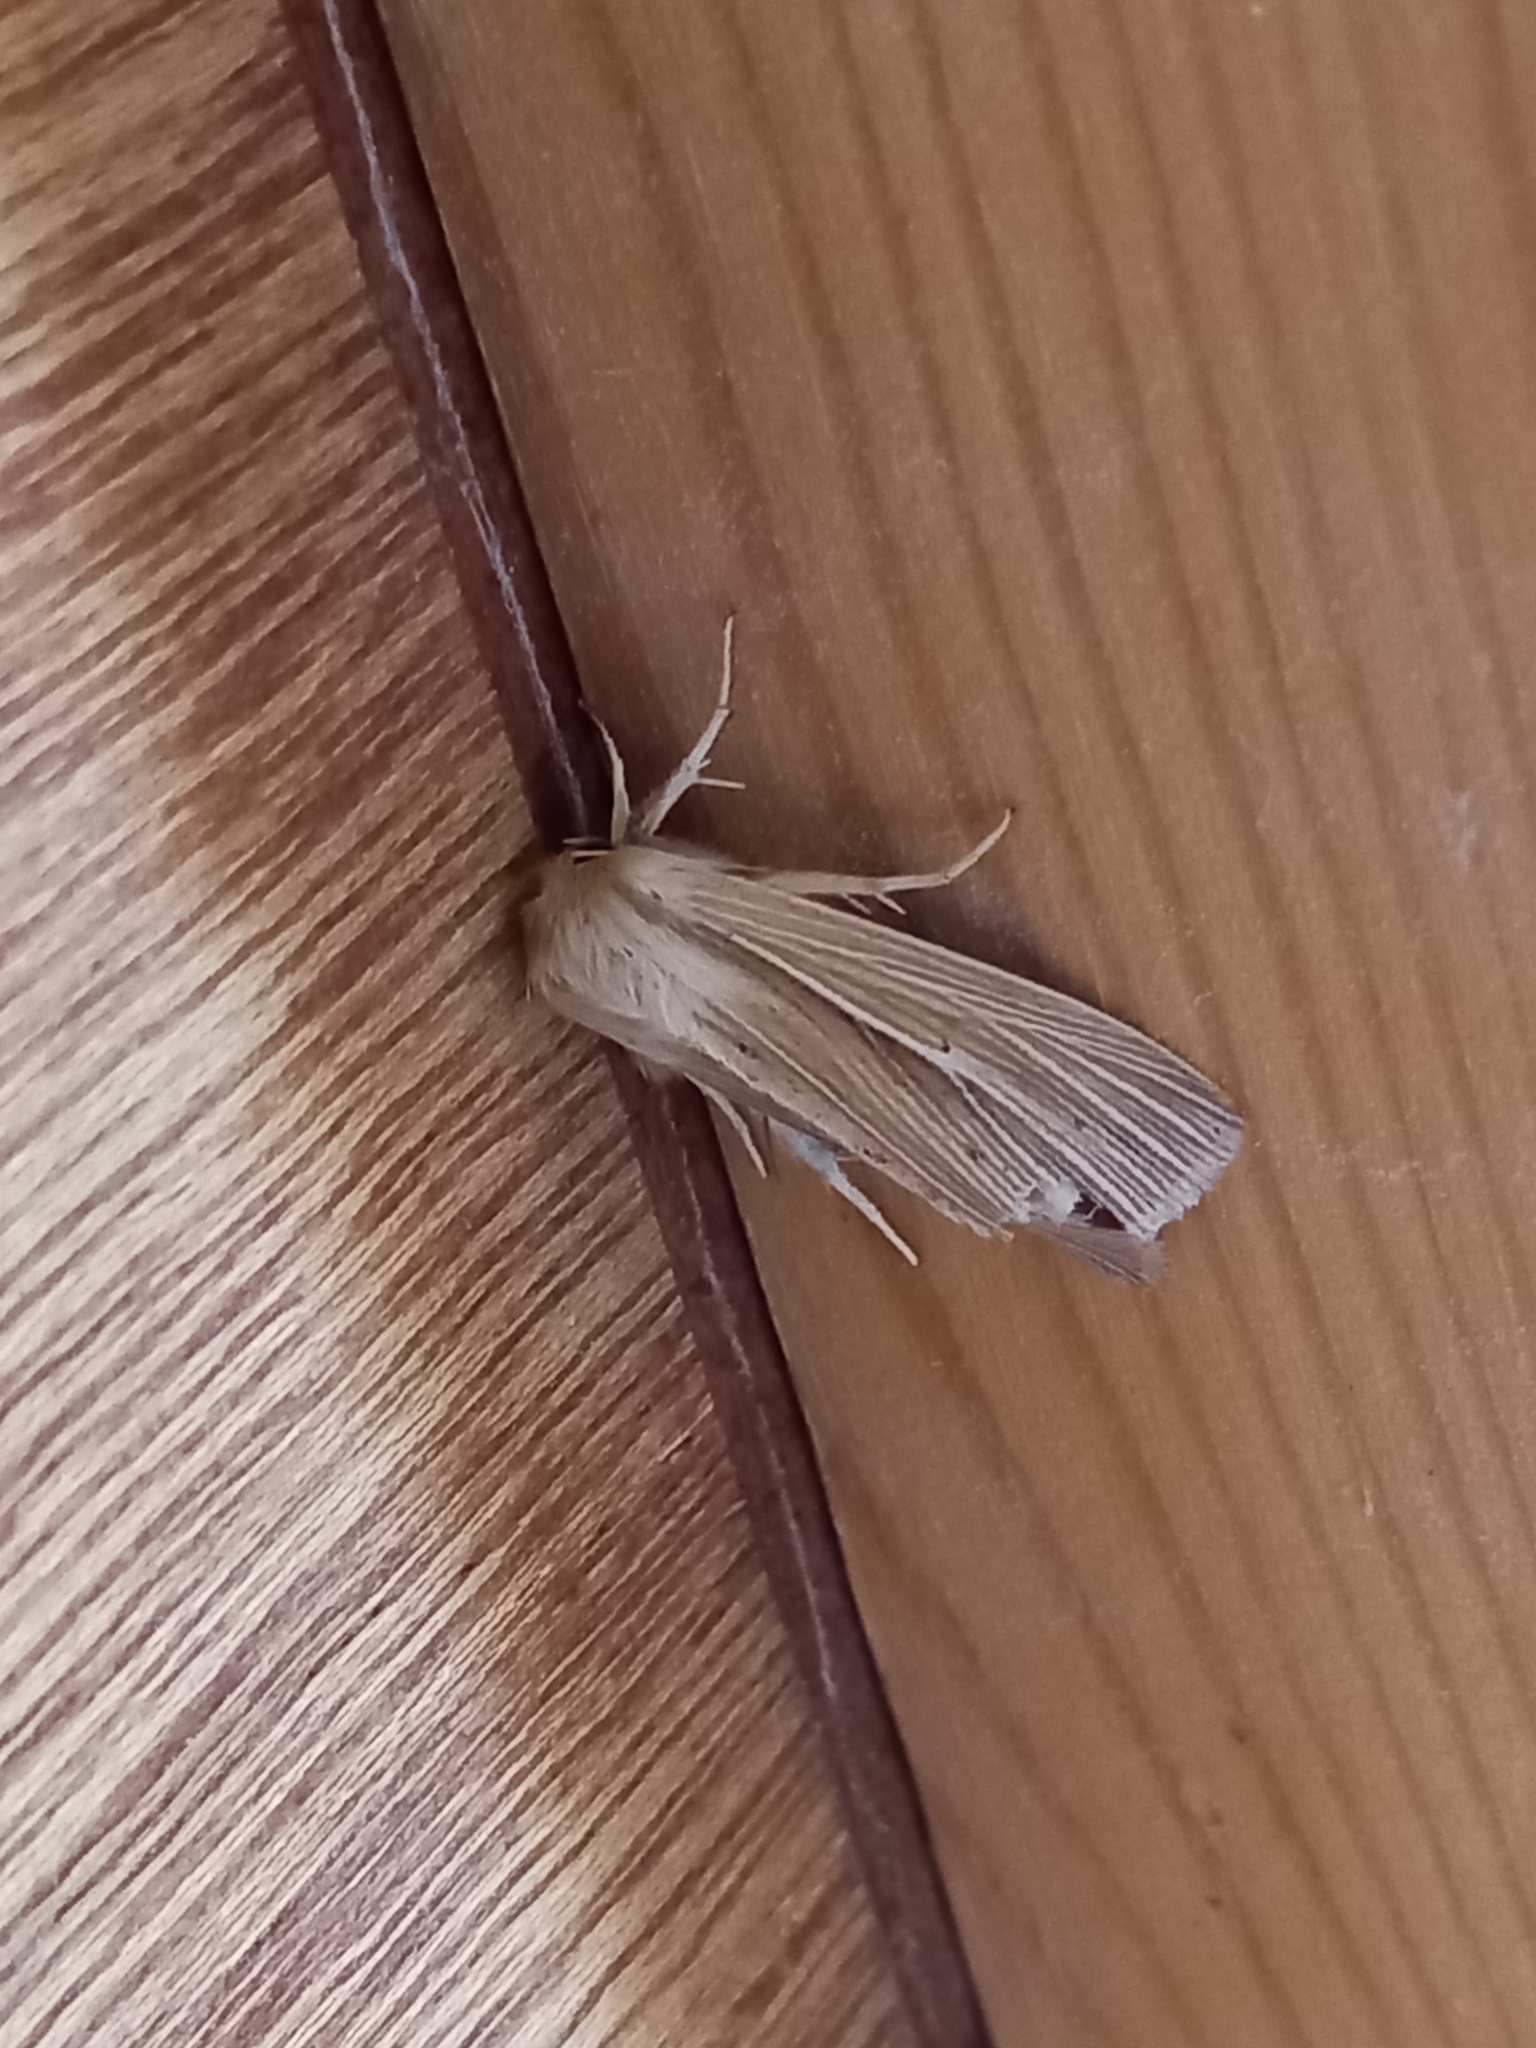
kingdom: Animalia
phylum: Arthropoda
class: Insecta
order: Lepidoptera
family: Noctuidae
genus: Mythimna
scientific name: Mythimna pallens
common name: Common wainscot
